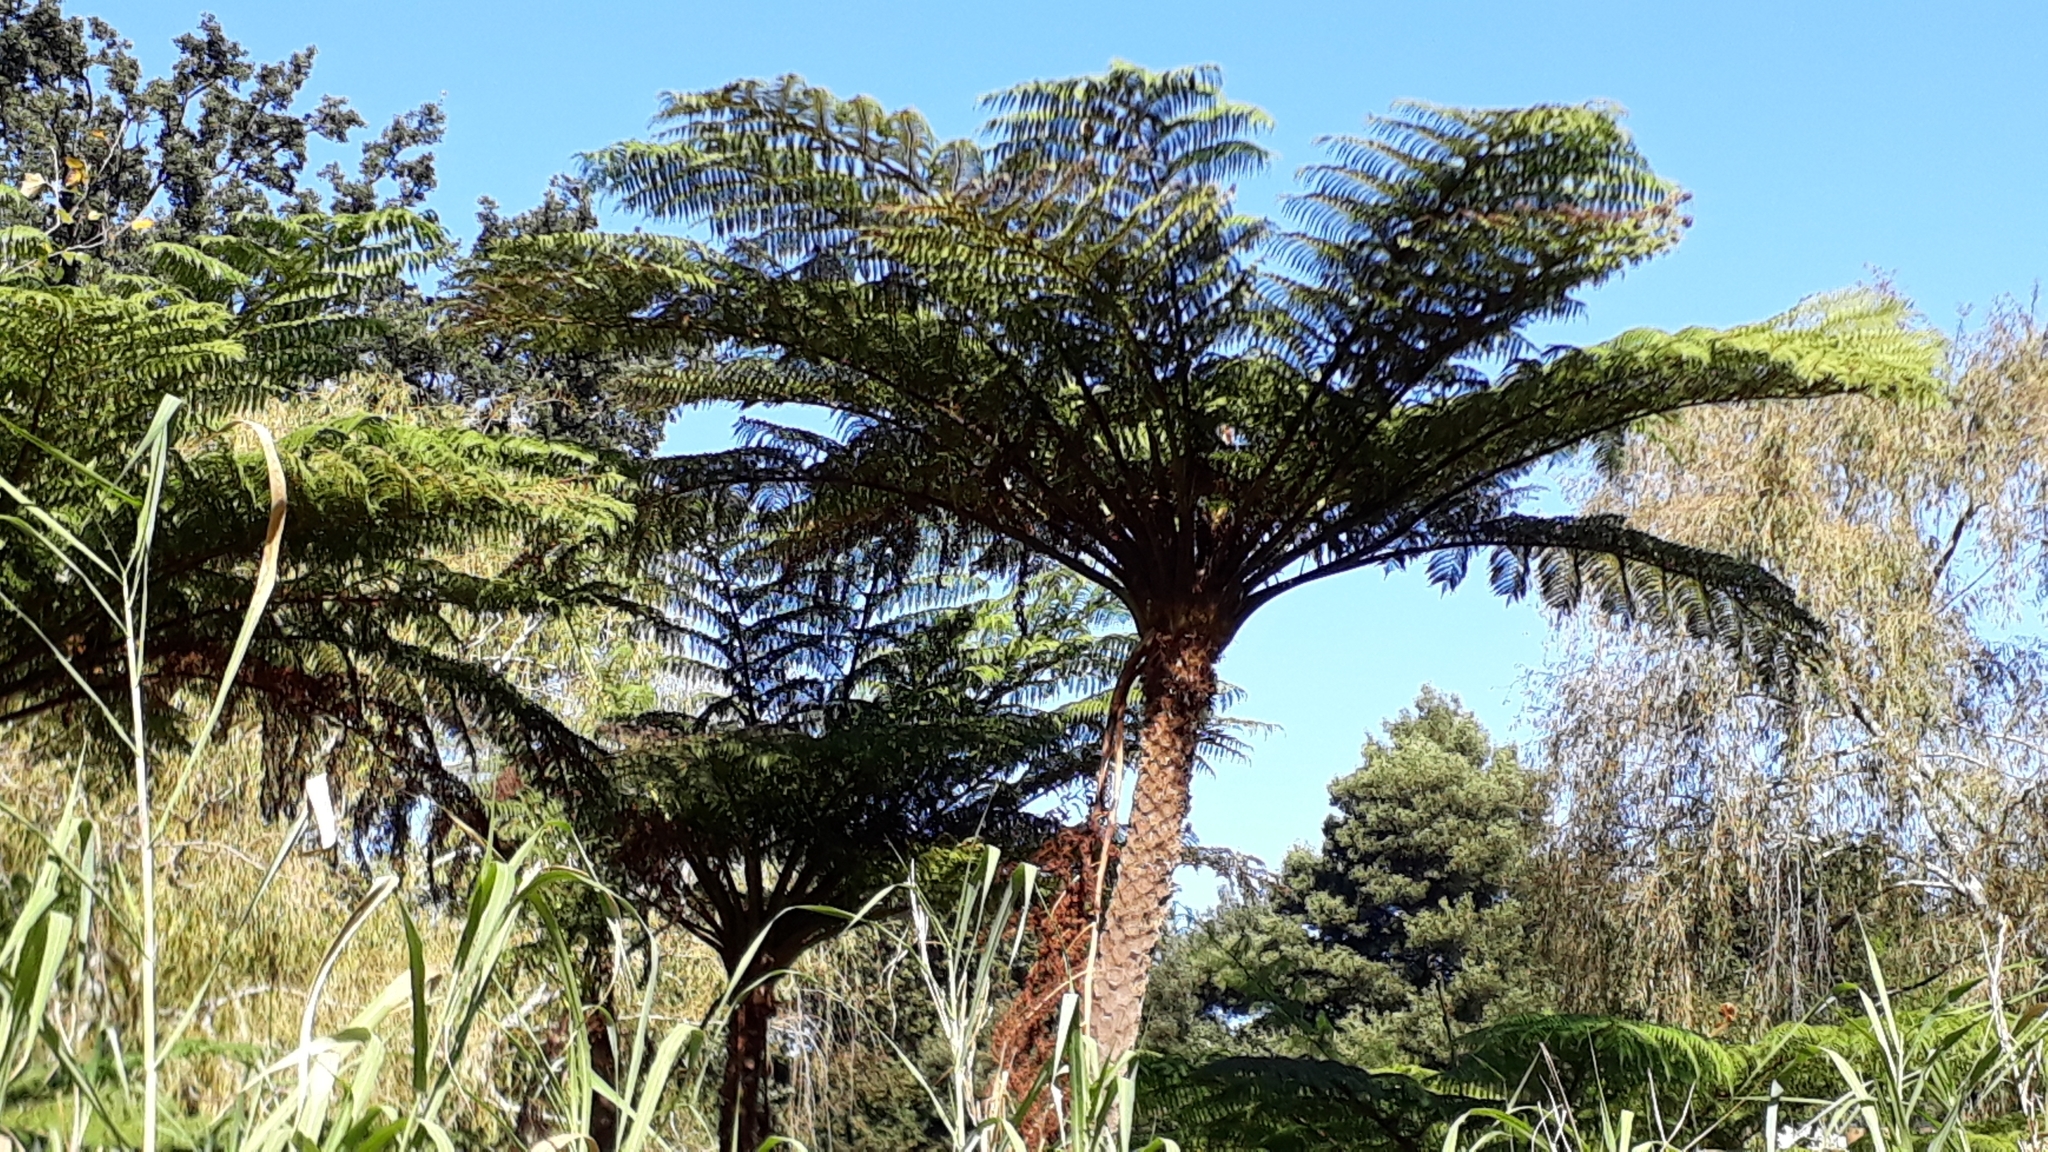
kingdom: Plantae
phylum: Tracheophyta
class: Polypodiopsida
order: Cyatheales
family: Cyatheaceae
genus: Sphaeropteris
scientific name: Sphaeropteris cooperi
